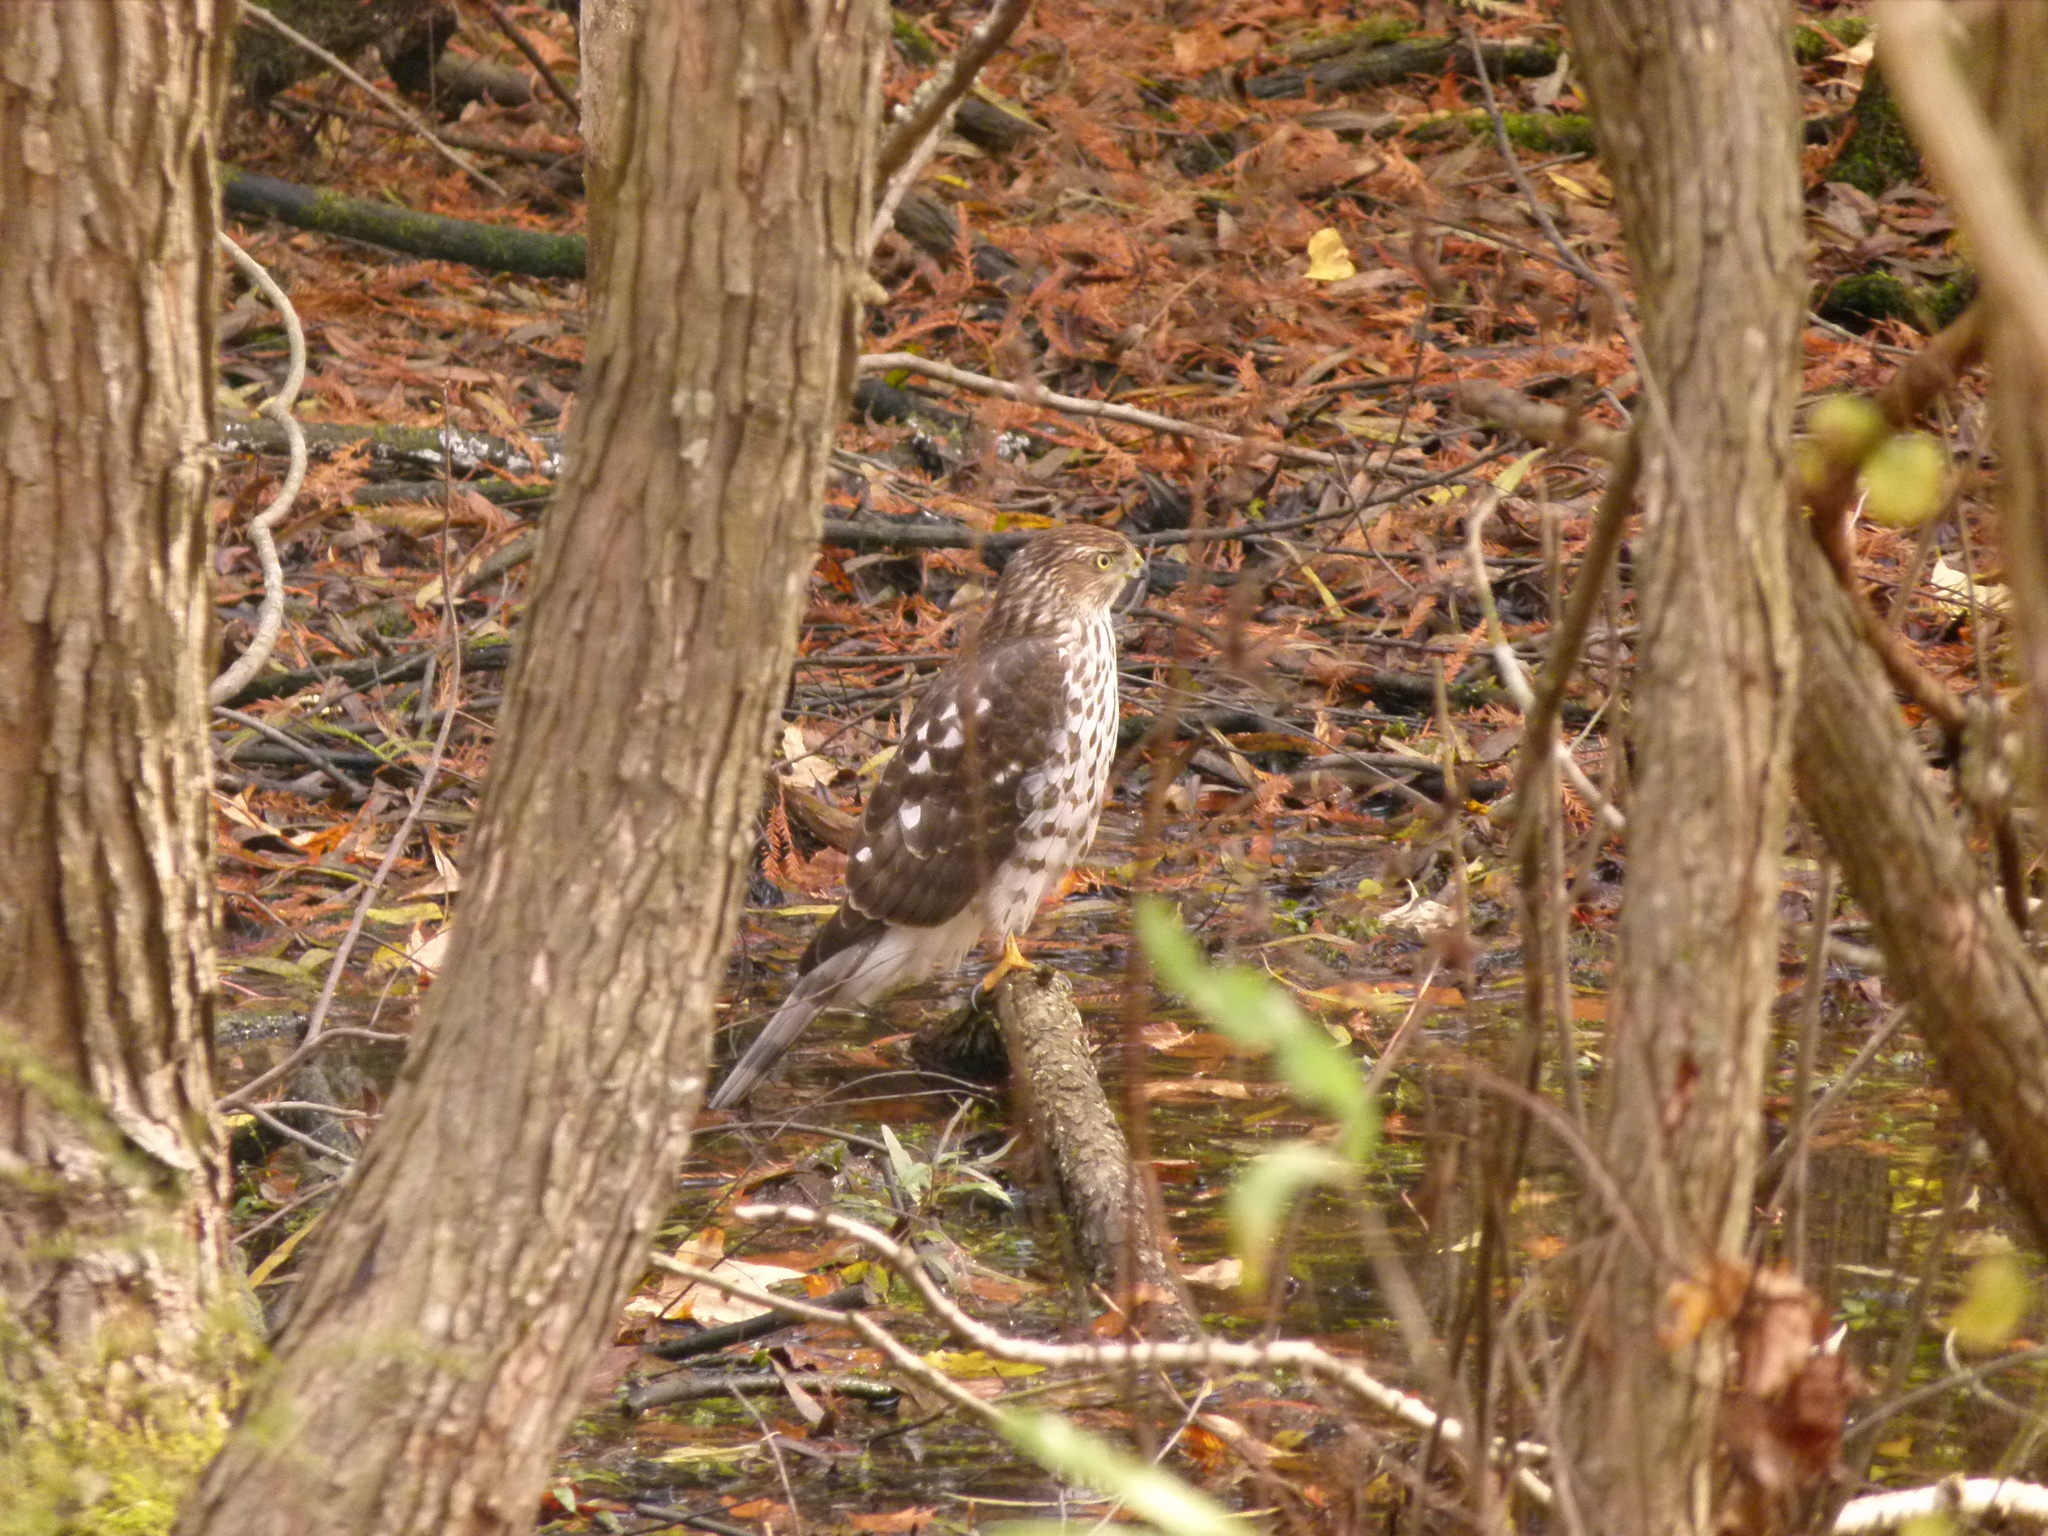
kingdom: Animalia
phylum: Chordata
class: Aves
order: Accipitriformes
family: Accipitridae
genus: Accipiter
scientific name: Accipiter cooperii
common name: Cooper's hawk
